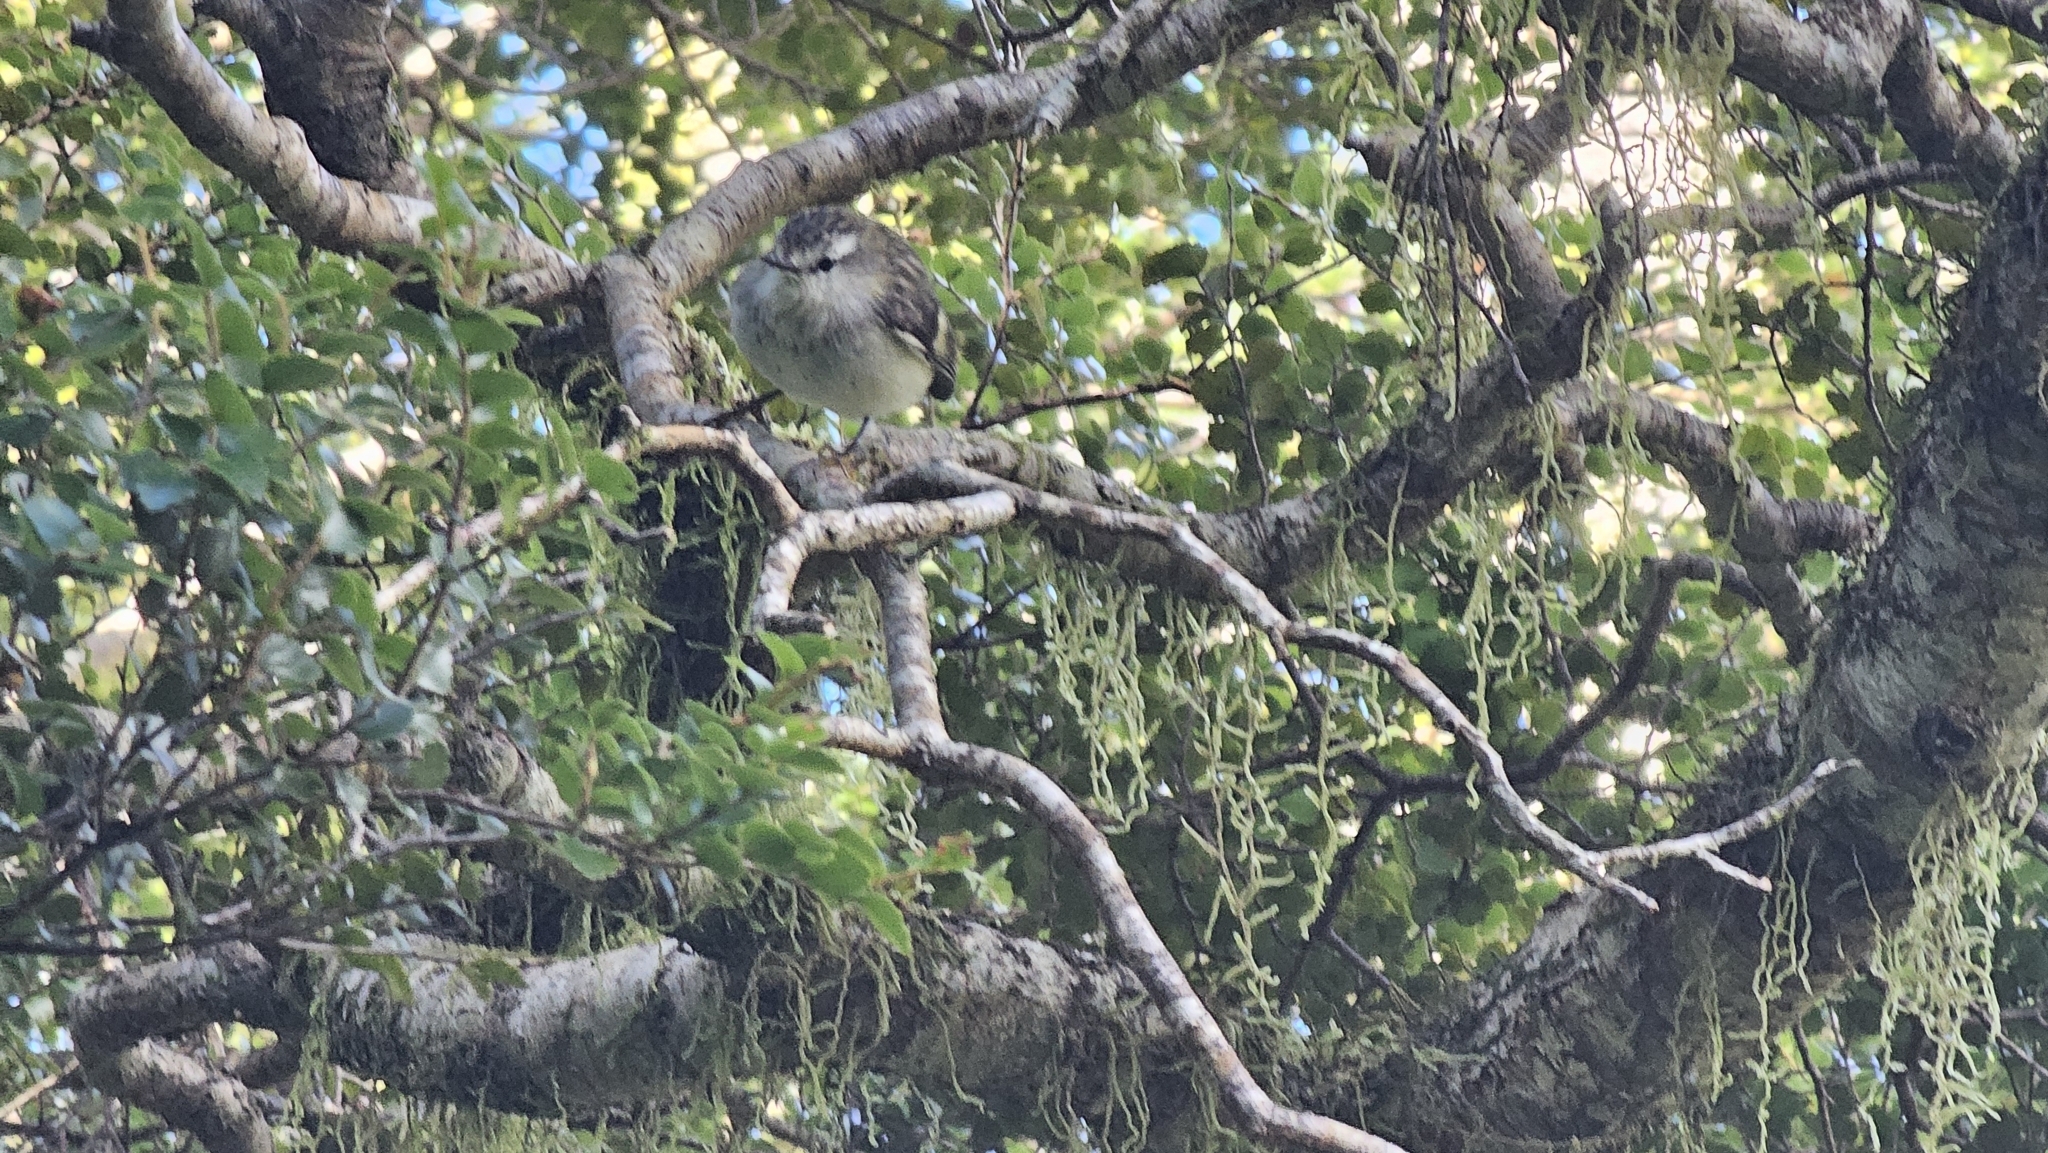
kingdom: Animalia
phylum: Chordata
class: Aves
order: Passeriformes
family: Acanthisittidae
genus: Acanthisitta
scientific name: Acanthisitta chloris
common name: Rifleman
